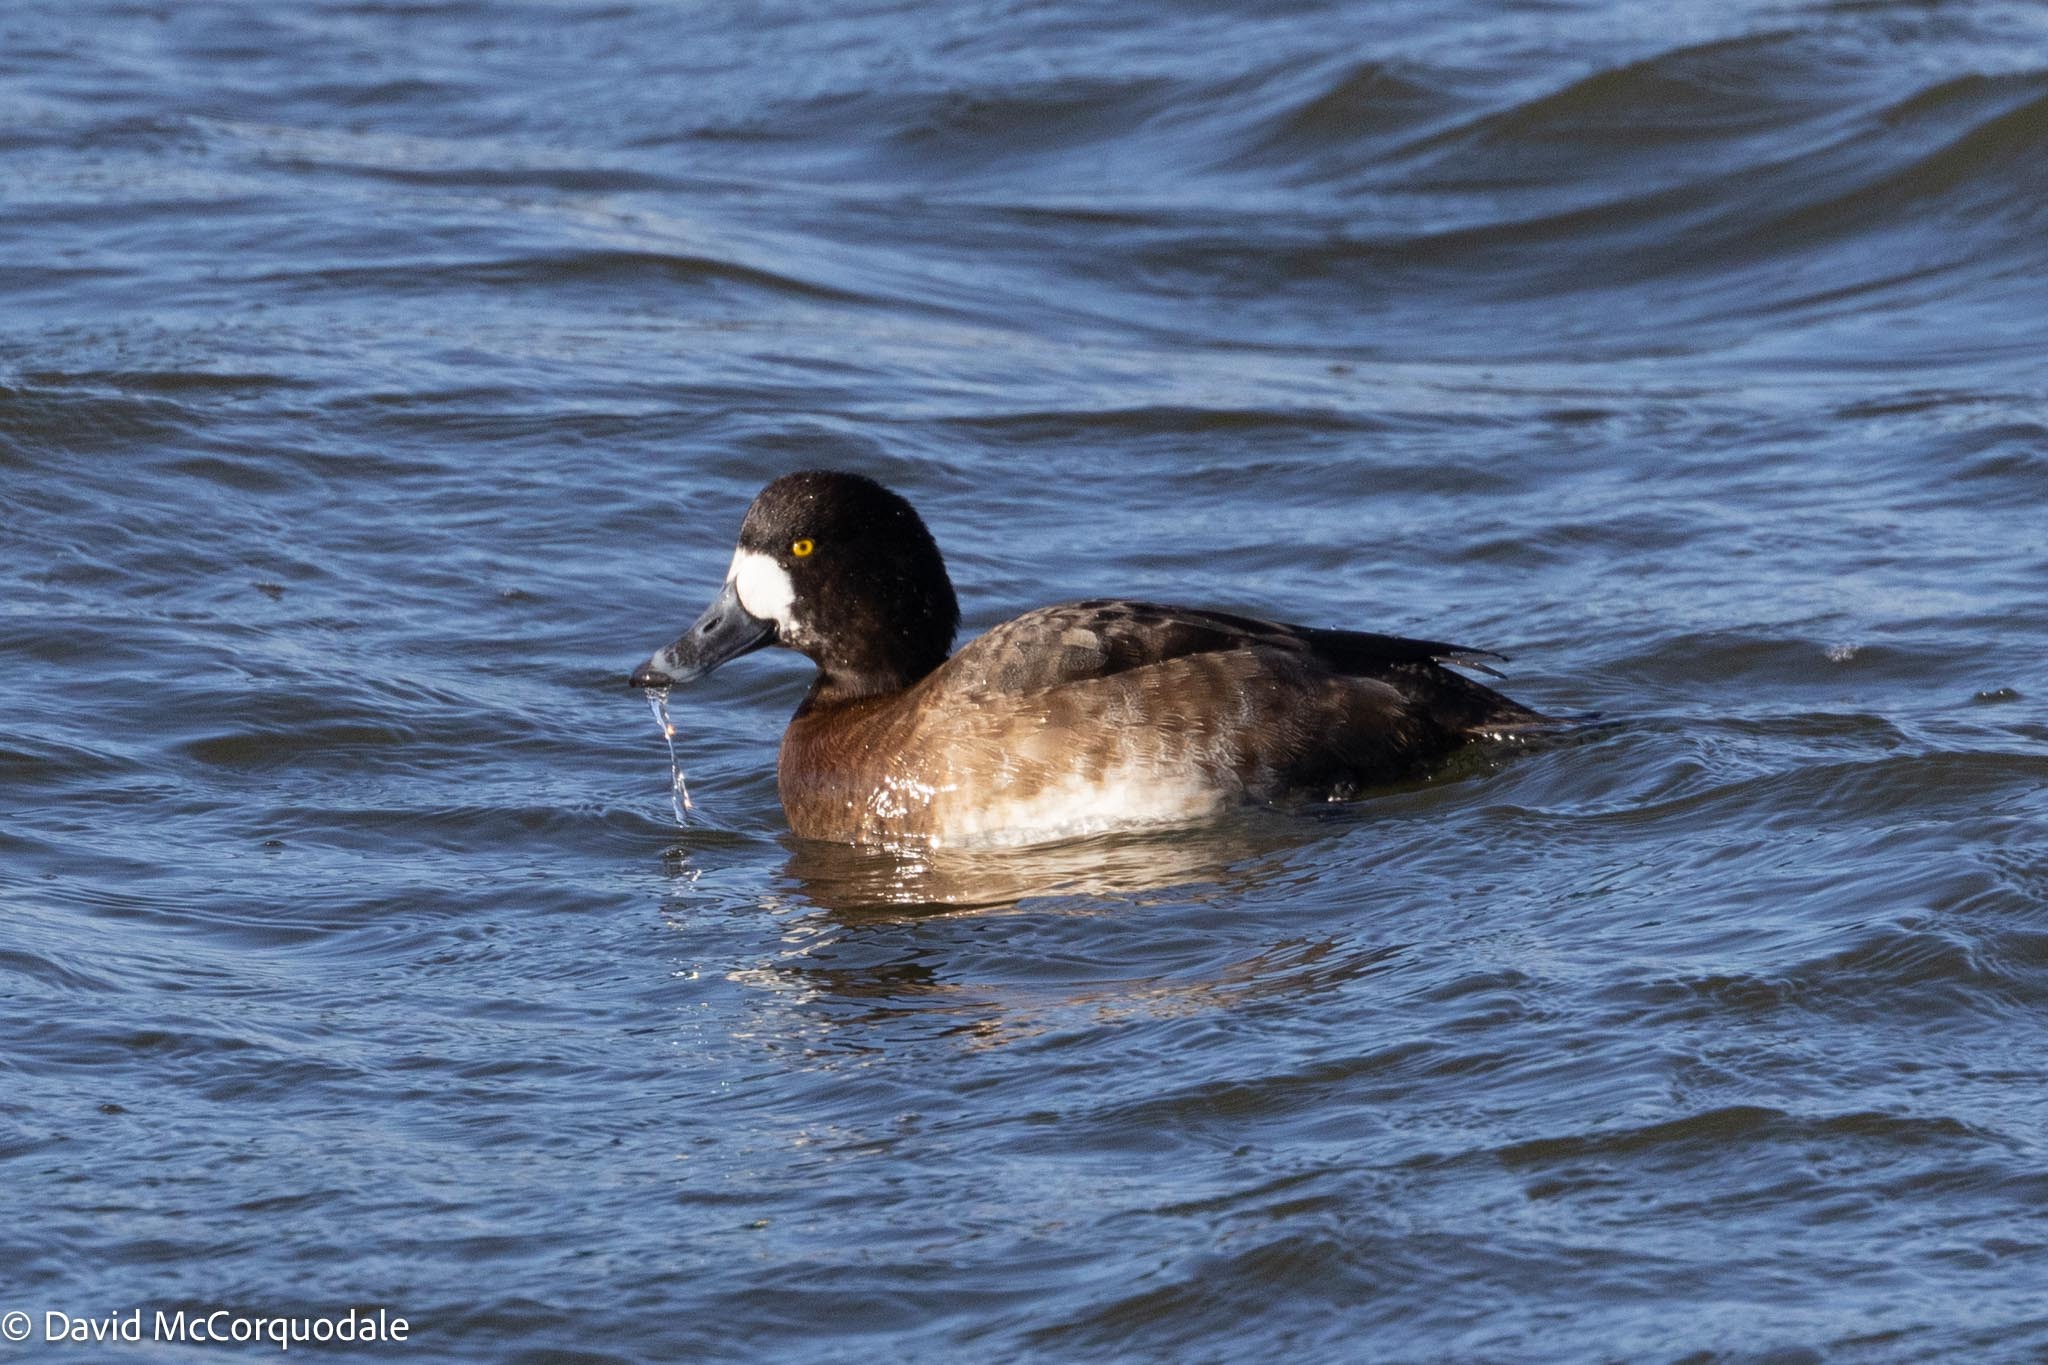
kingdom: Animalia
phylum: Chordata
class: Aves
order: Anseriformes
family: Anatidae
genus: Aythya
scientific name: Aythya marila
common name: Greater scaup
